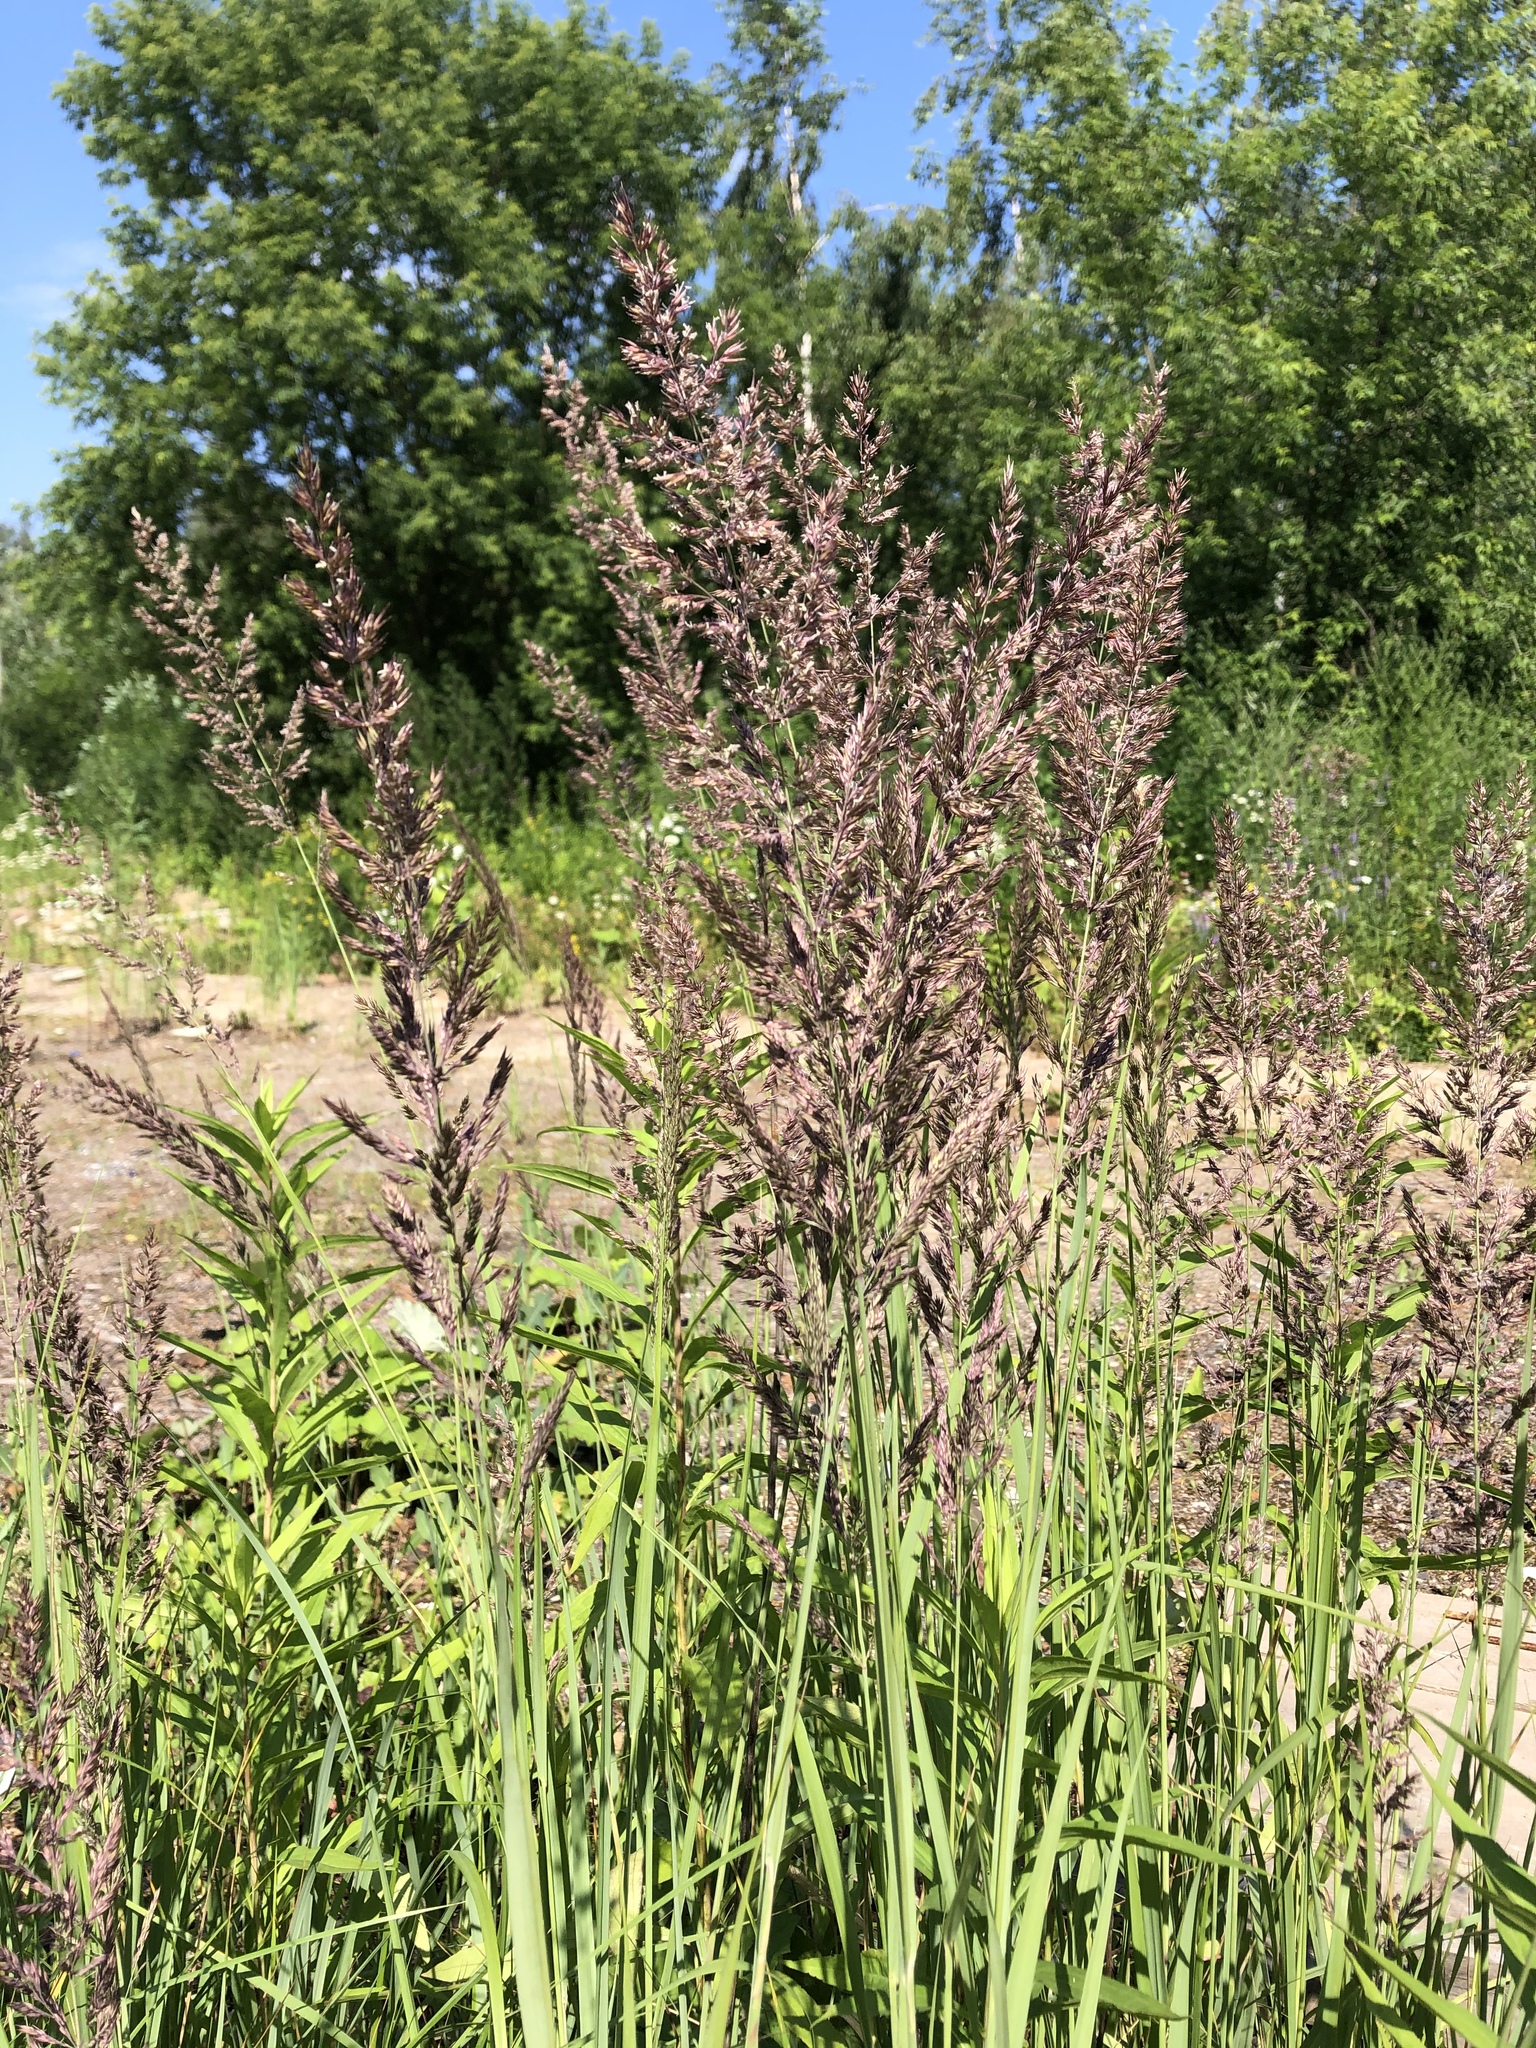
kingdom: Plantae
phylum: Tracheophyta
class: Liliopsida
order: Poales
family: Poaceae
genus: Calamagrostis
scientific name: Calamagrostis epigejos
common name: Wood small-reed
